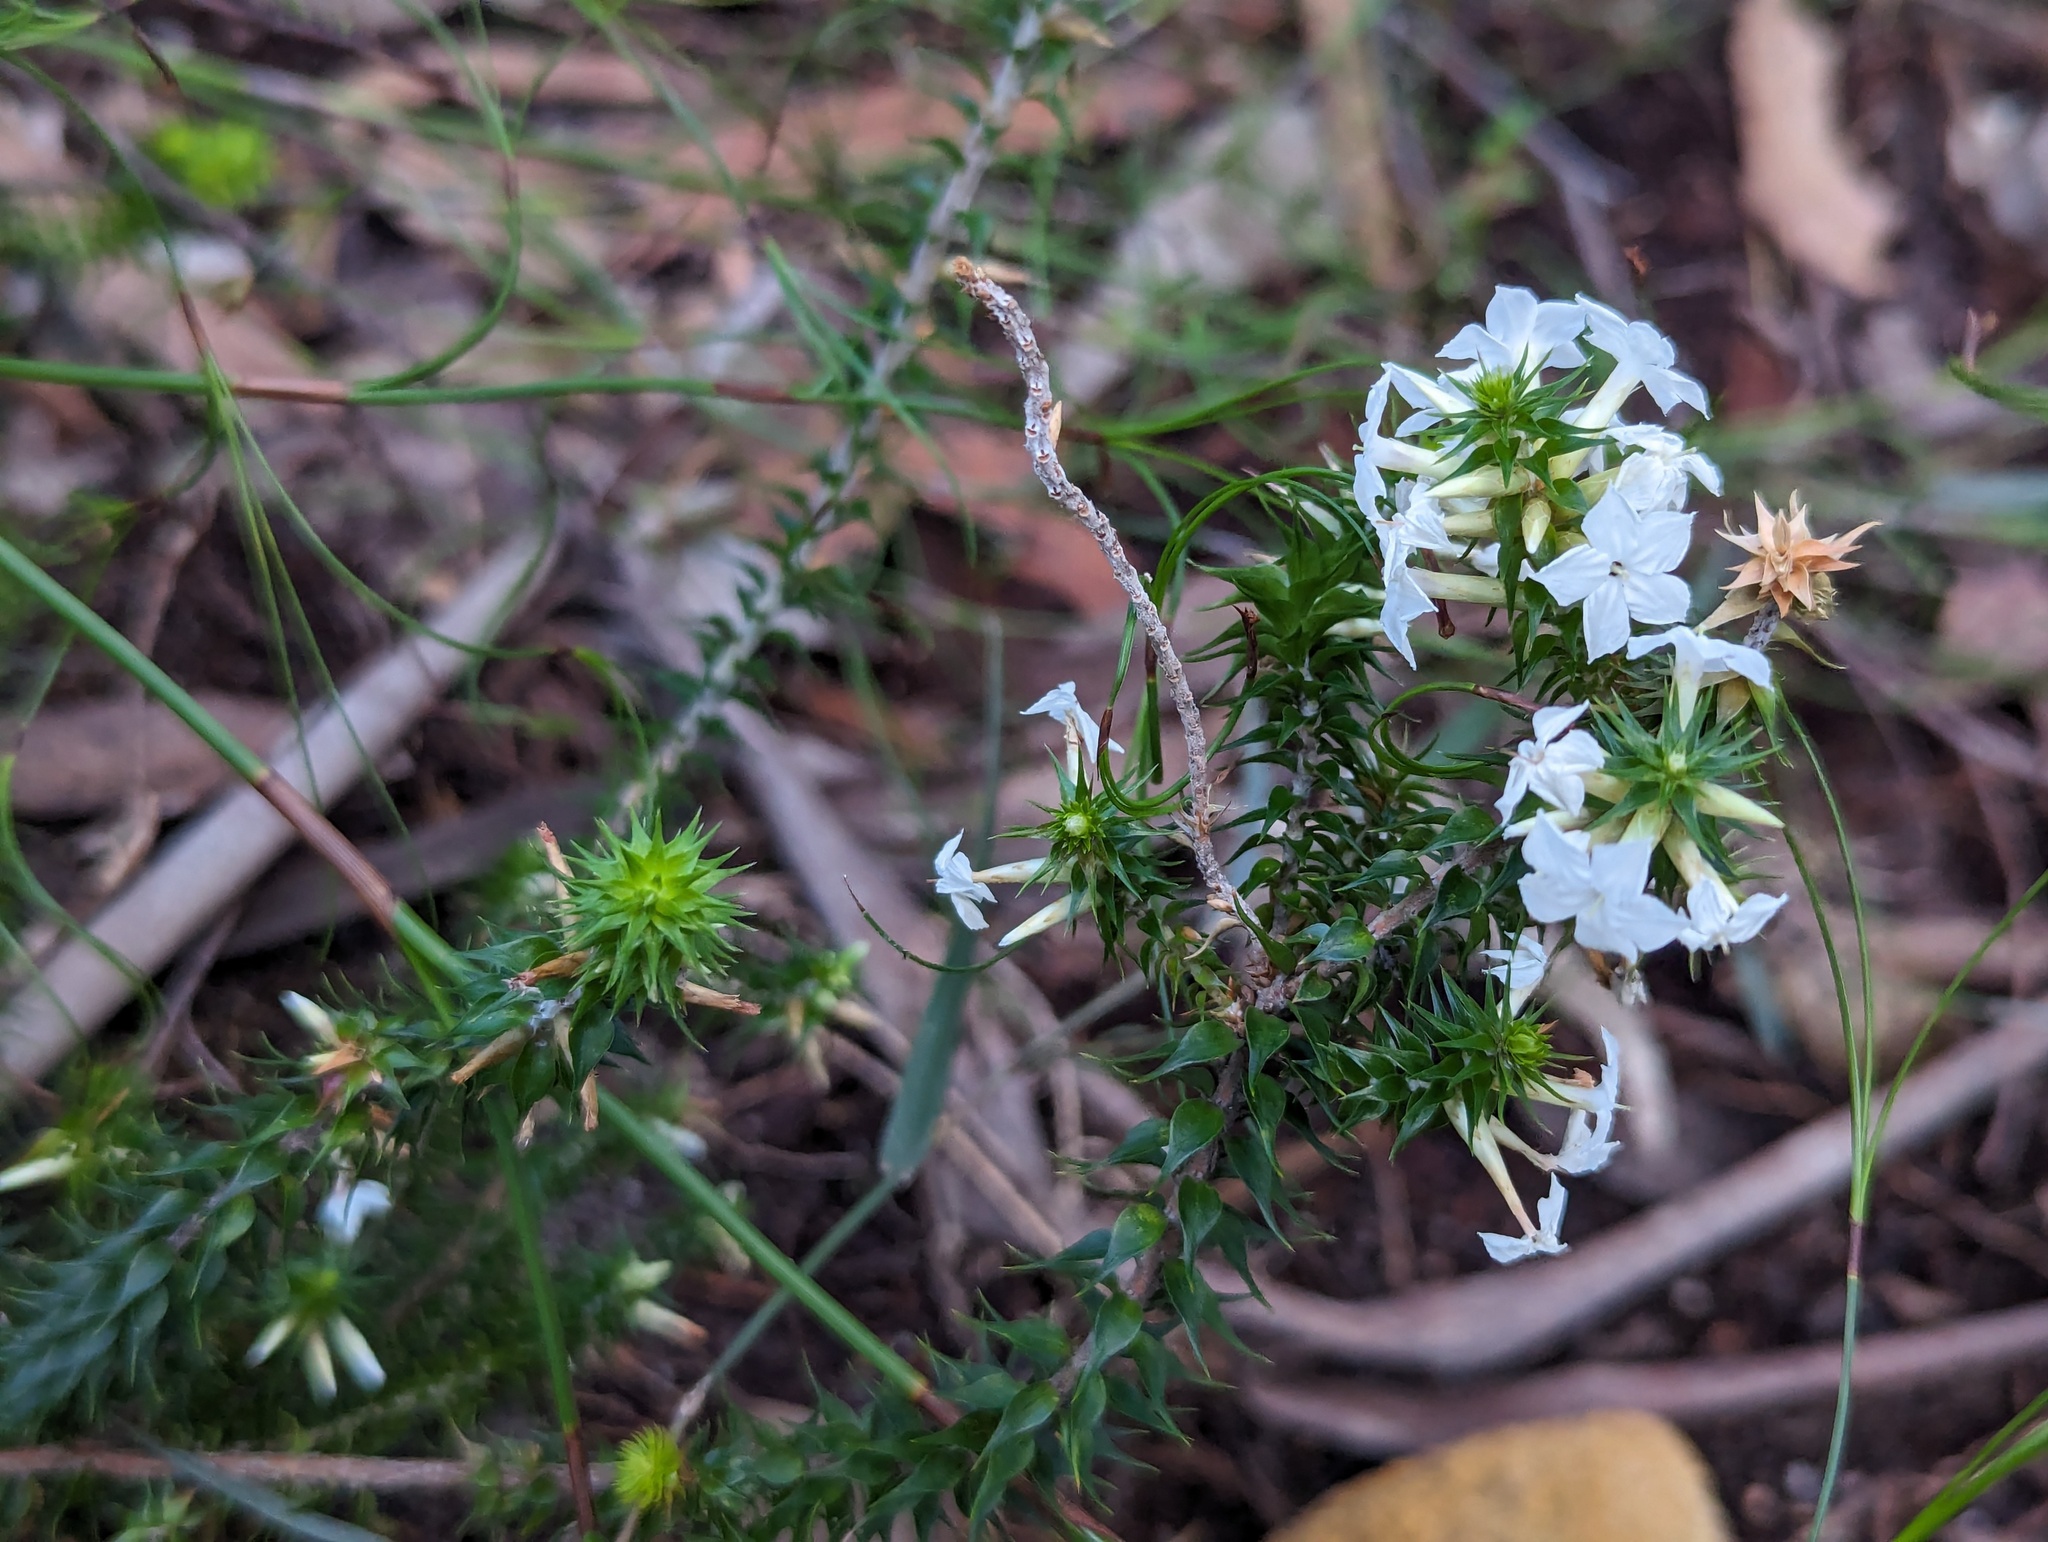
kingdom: Plantae
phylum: Tracheophyta
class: Magnoliopsida
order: Ericales
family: Ericaceae
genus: Woollsia
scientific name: Woollsia pungens
